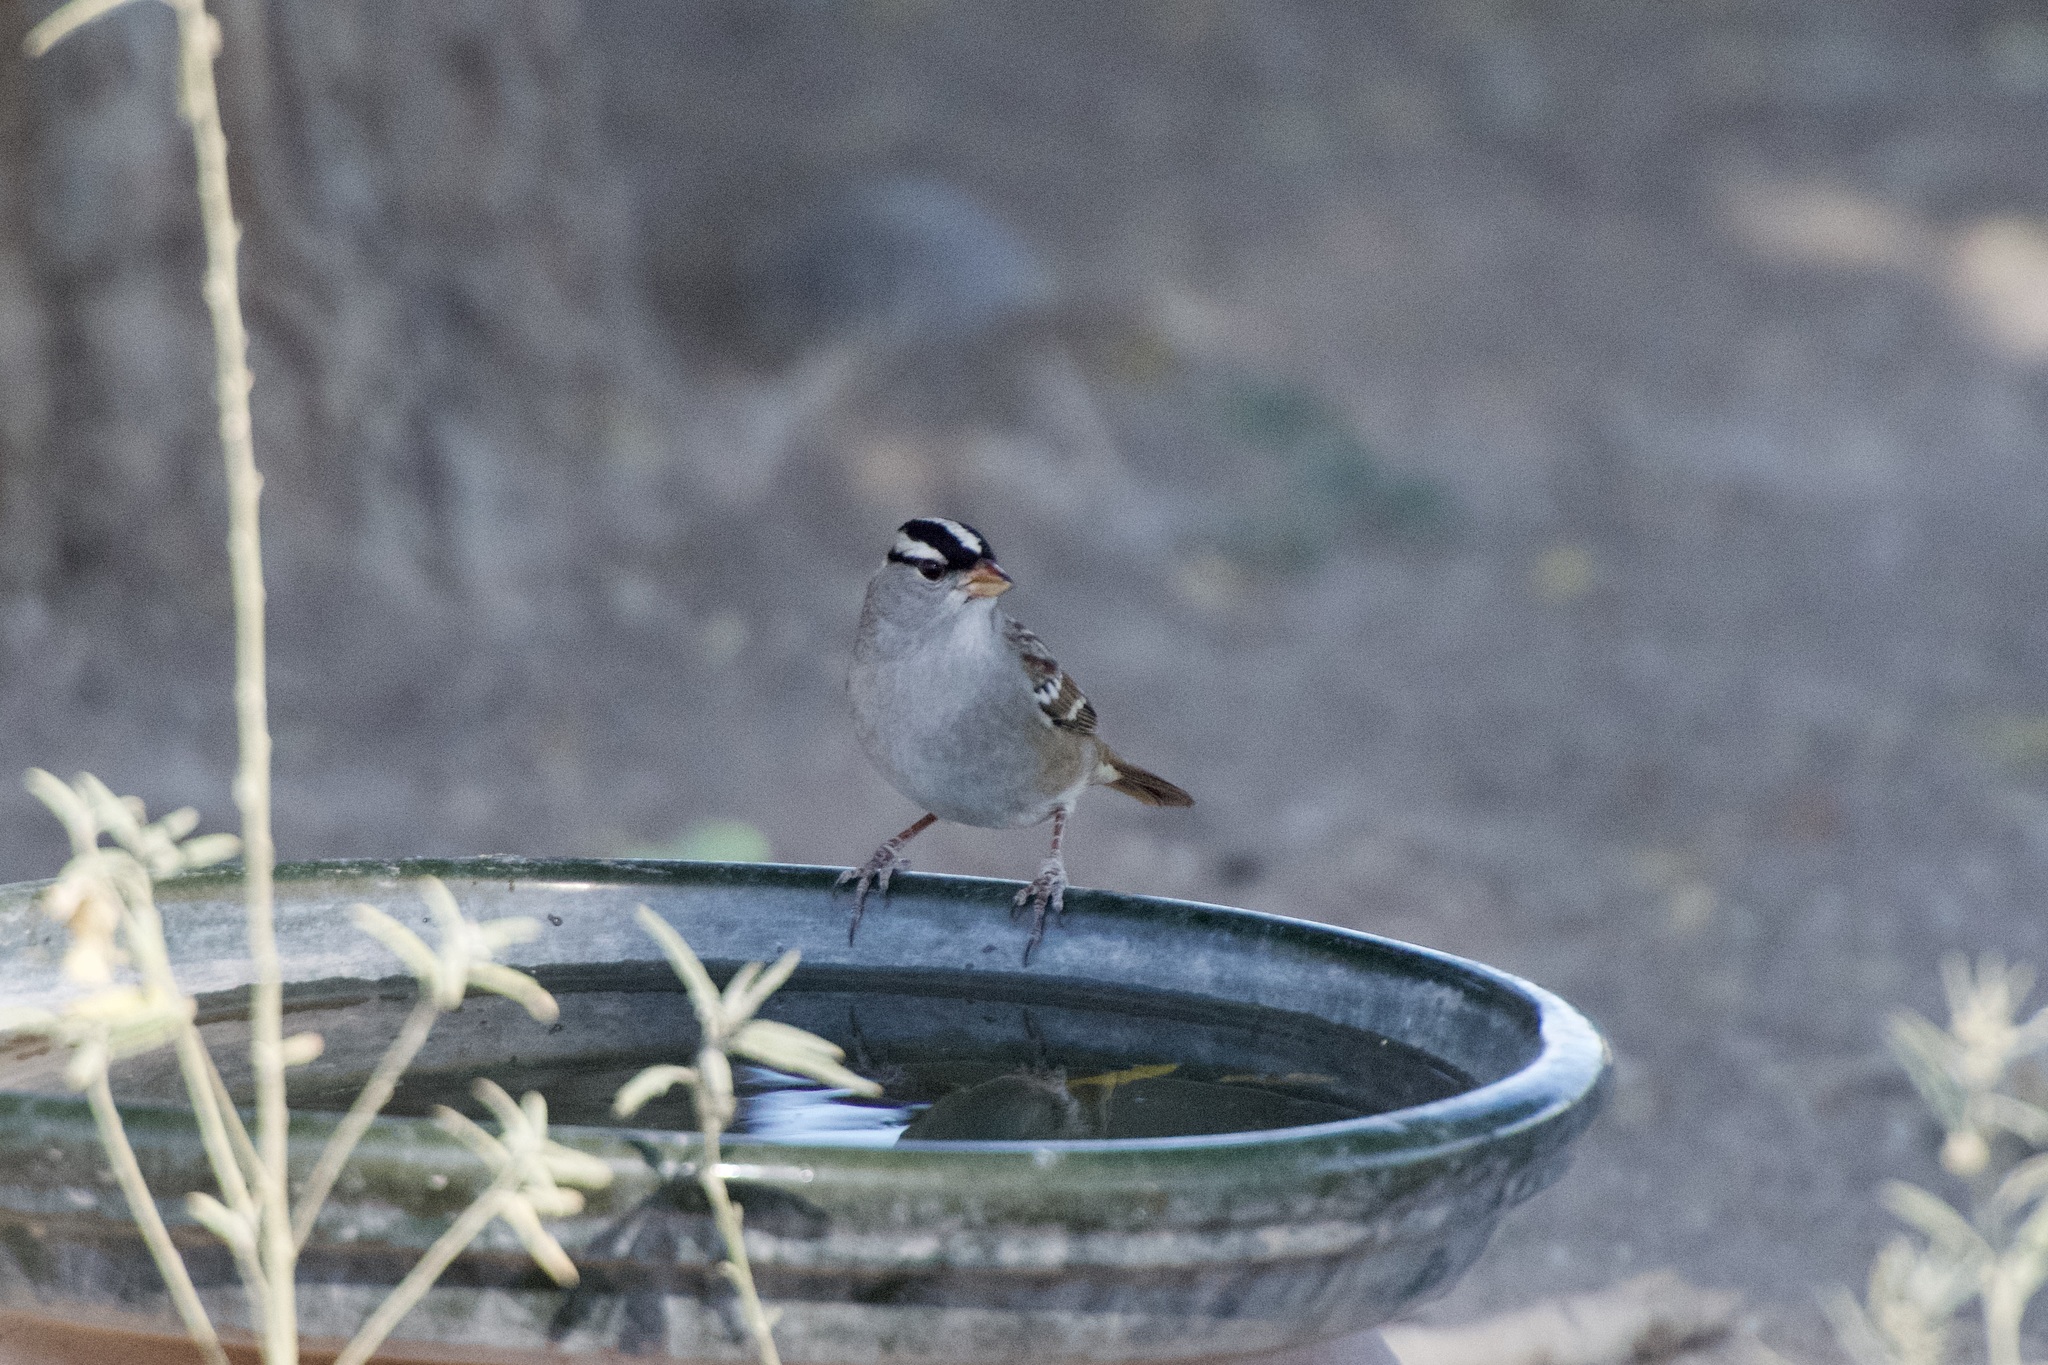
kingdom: Animalia
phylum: Chordata
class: Aves
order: Passeriformes
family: Passerellidae
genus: Zonotrichia
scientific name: Zonotrichia leucophrys
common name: White-crowned sparrow
